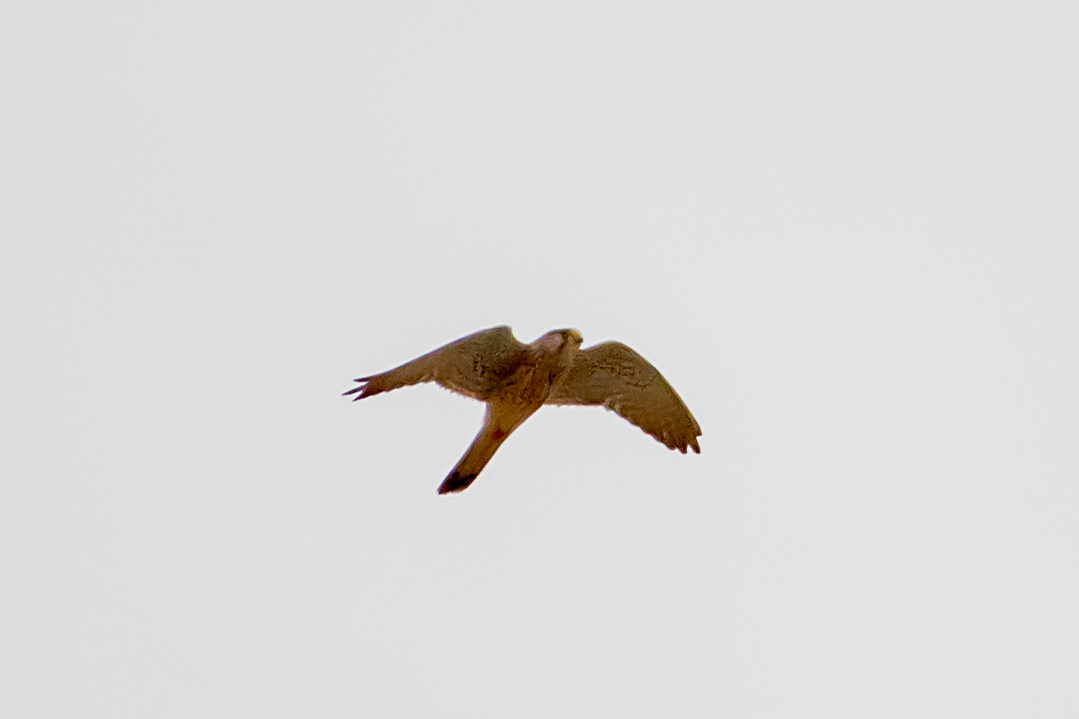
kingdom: Animalia
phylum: Chordata
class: Aves
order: Falconiformes
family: Falconidae
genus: Falco
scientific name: Falco tinnunculus
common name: Common kestrel
